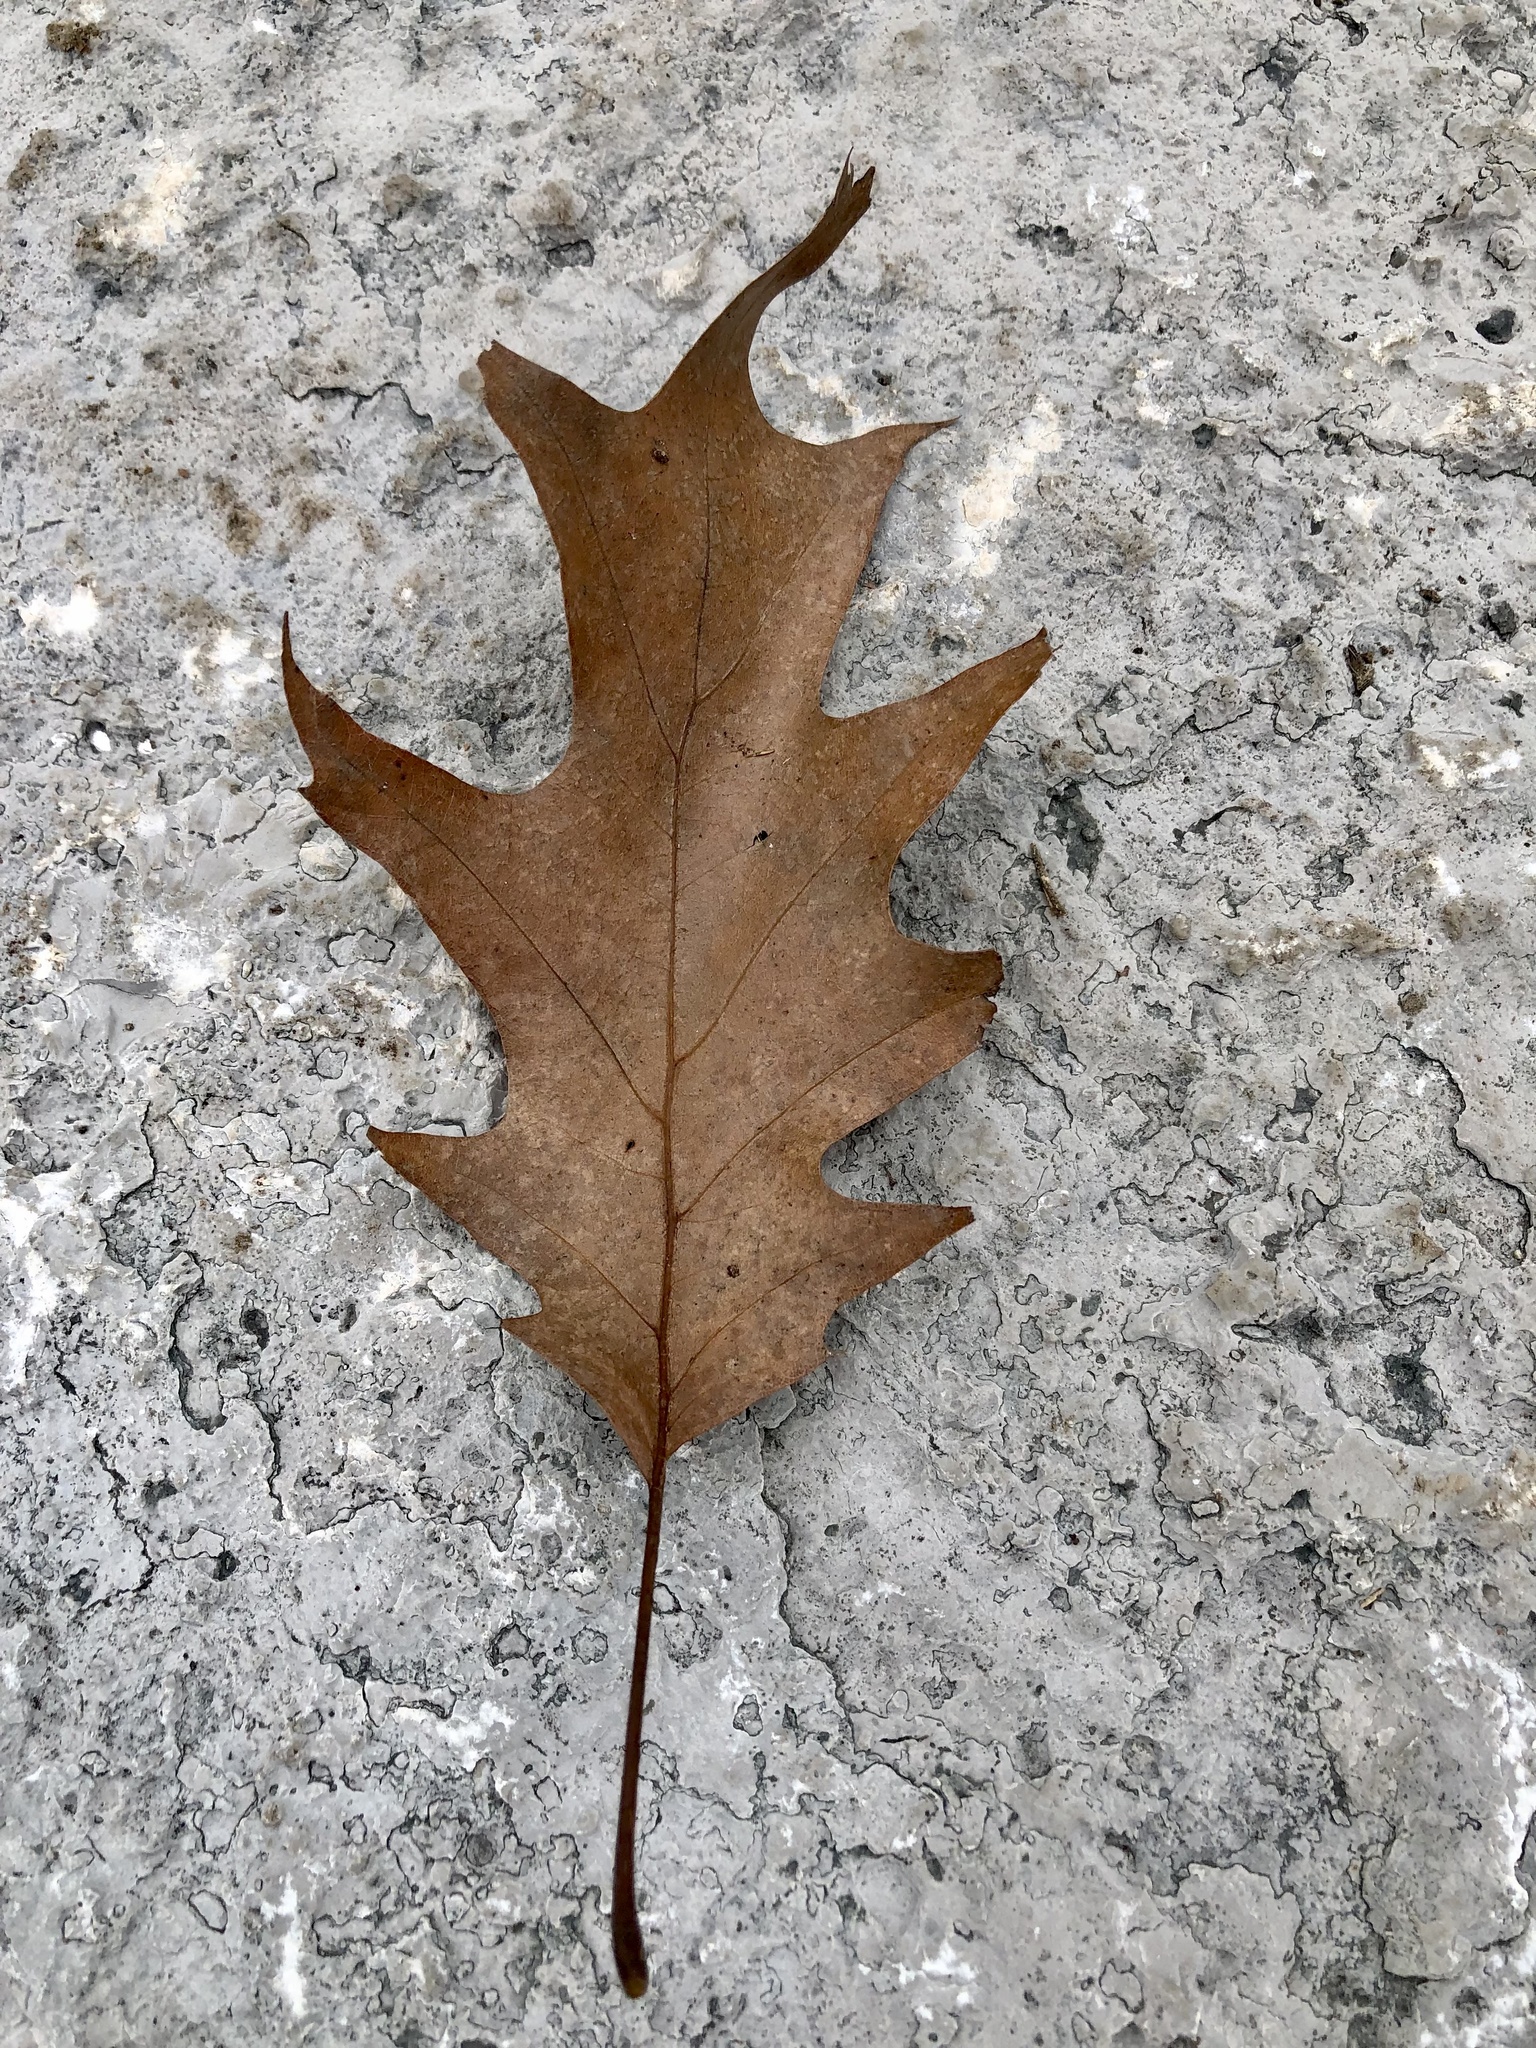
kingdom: Plantae
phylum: Tracheophyta
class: Magnoliopsida
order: Fagales
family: Fagaceae
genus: Quercus
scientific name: Quercus rubra
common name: Red oak
